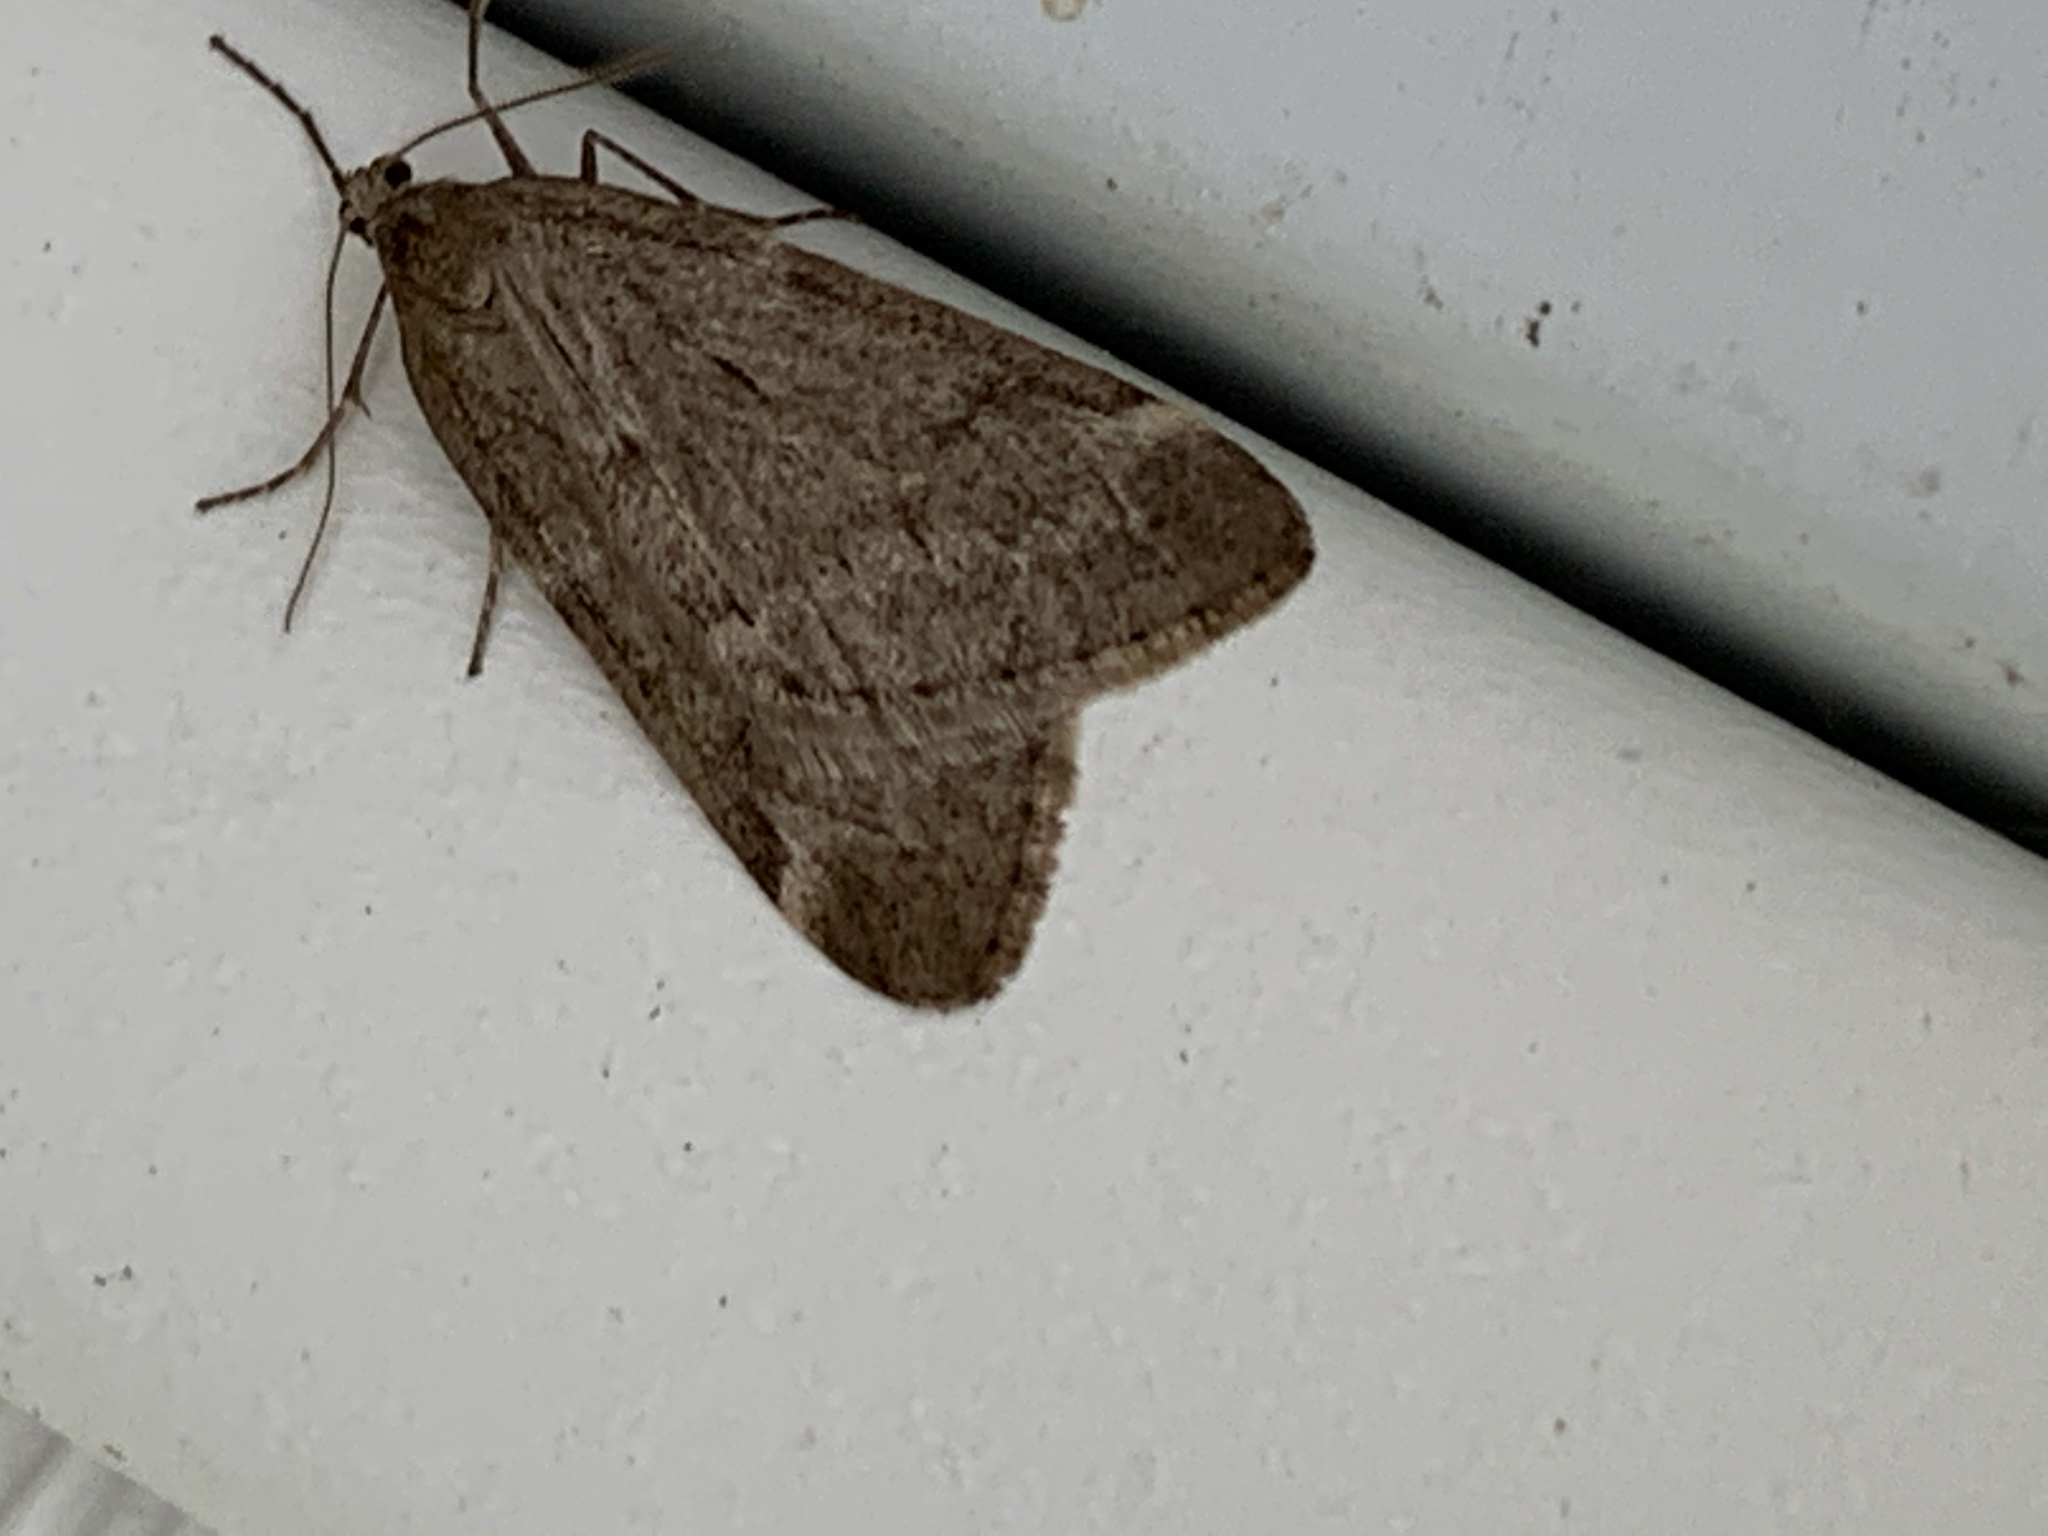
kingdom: Animalia
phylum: Arthropoda
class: Insecta
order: Lepidoptera
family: Geometridae
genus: Alsophila
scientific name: Alsophila pometaria
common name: Fall cankerworm
